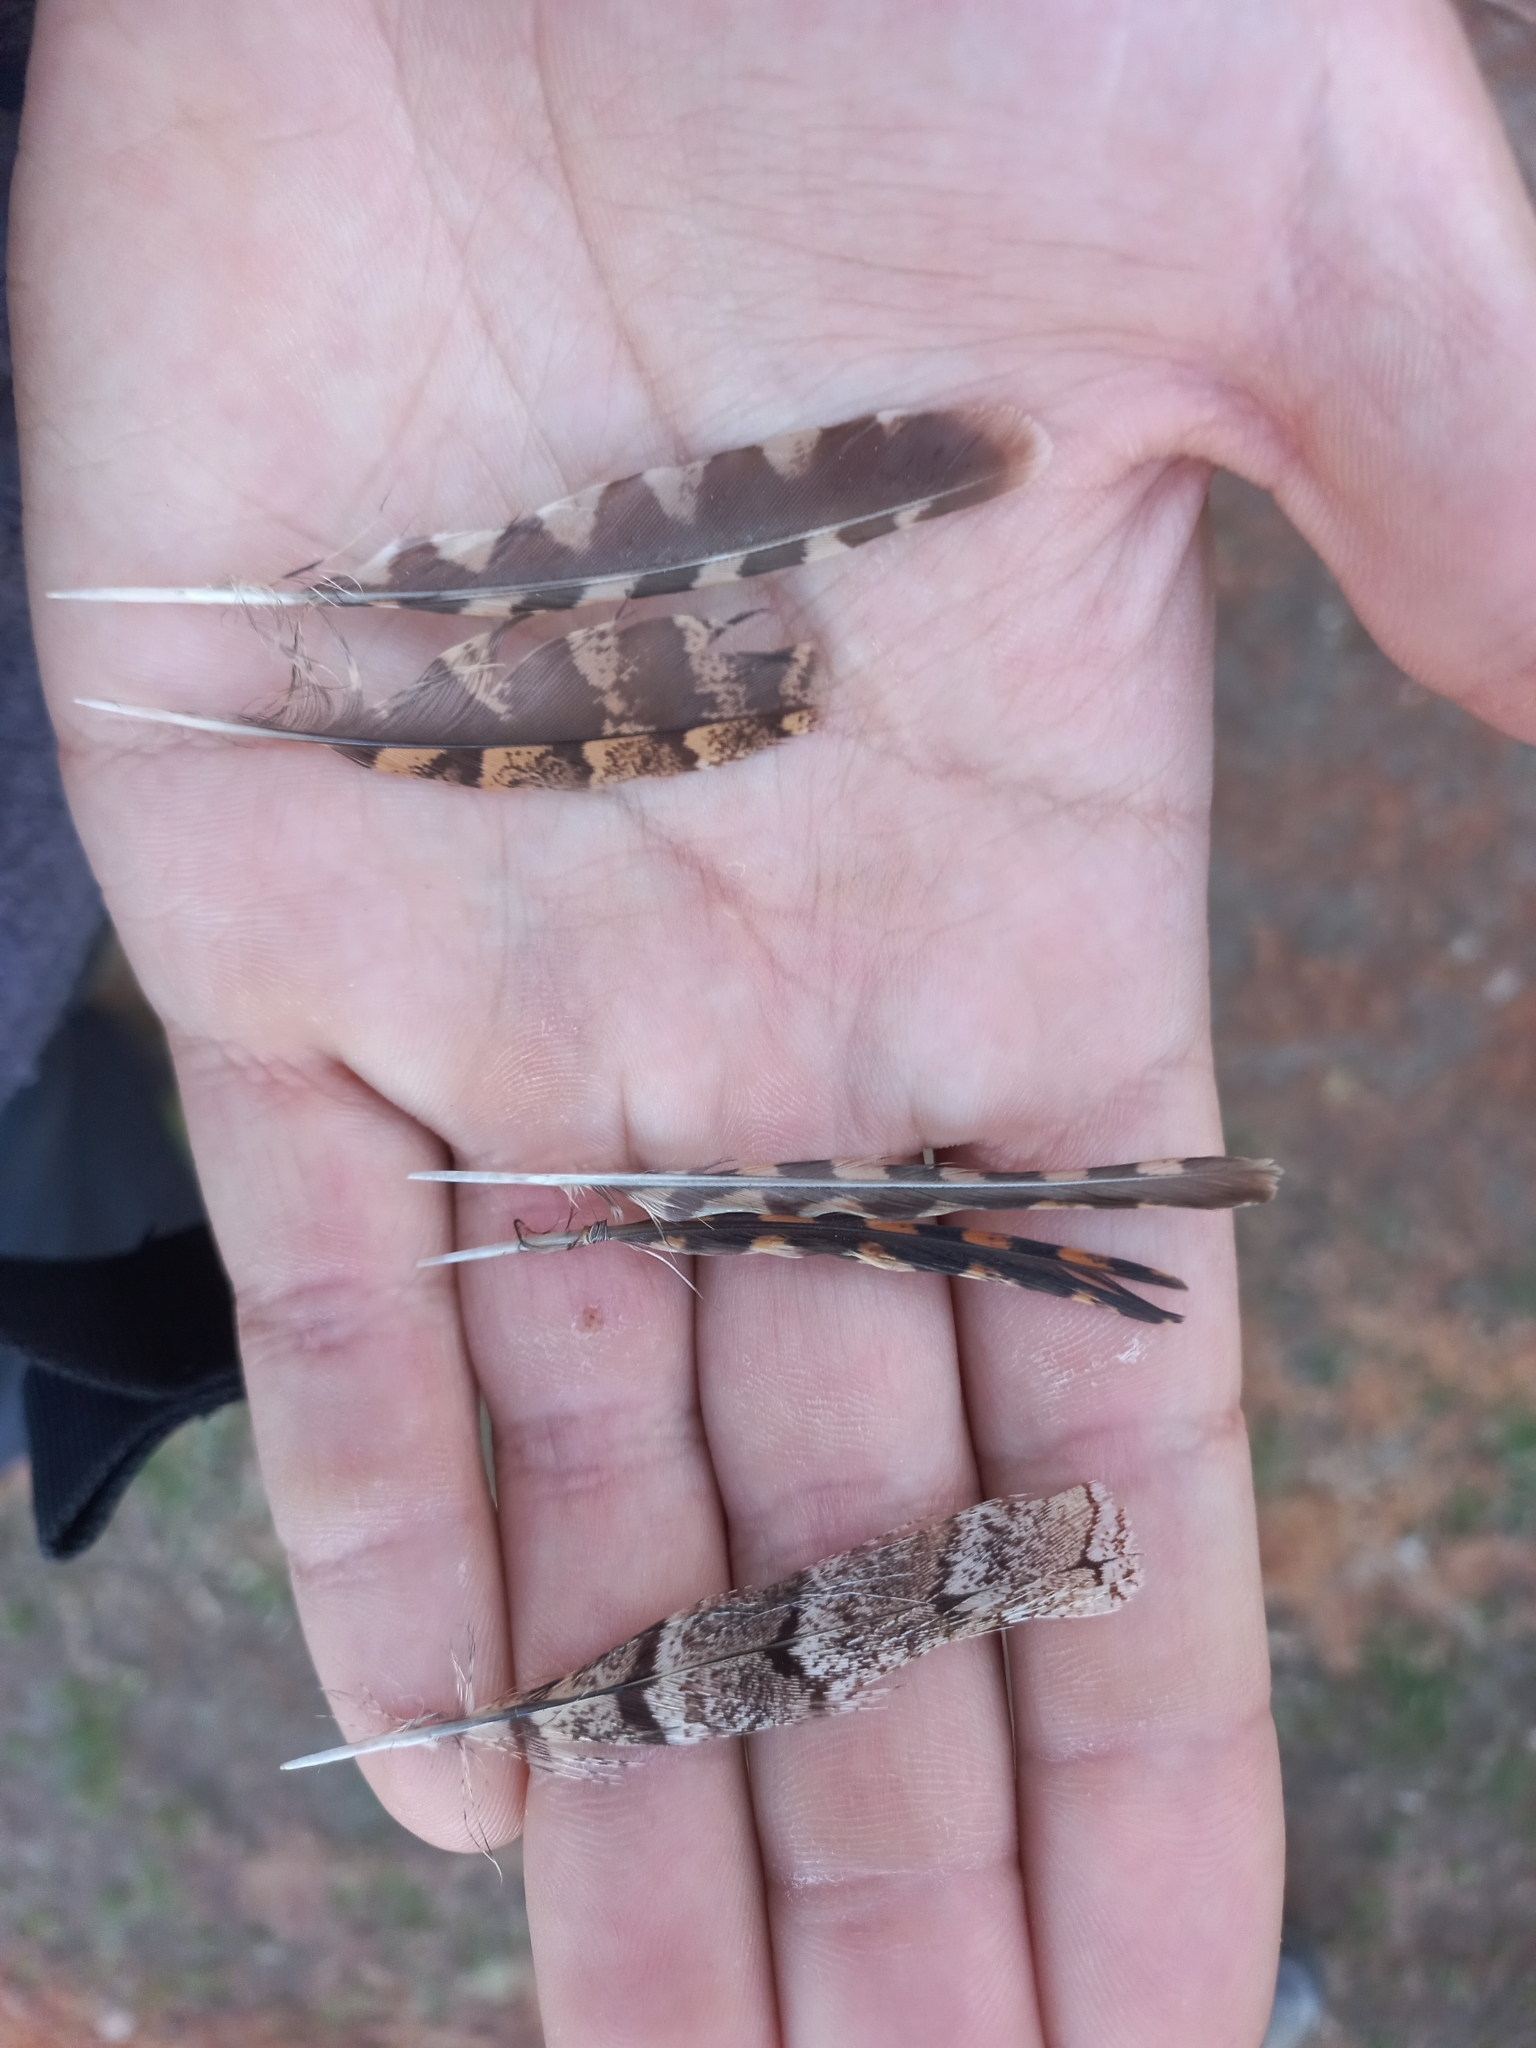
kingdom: Animalia
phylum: Chordata
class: Aves
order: Piciformes
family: Picidae
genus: Jynx
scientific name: Jynx torquilla
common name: Eurasian wryneck
